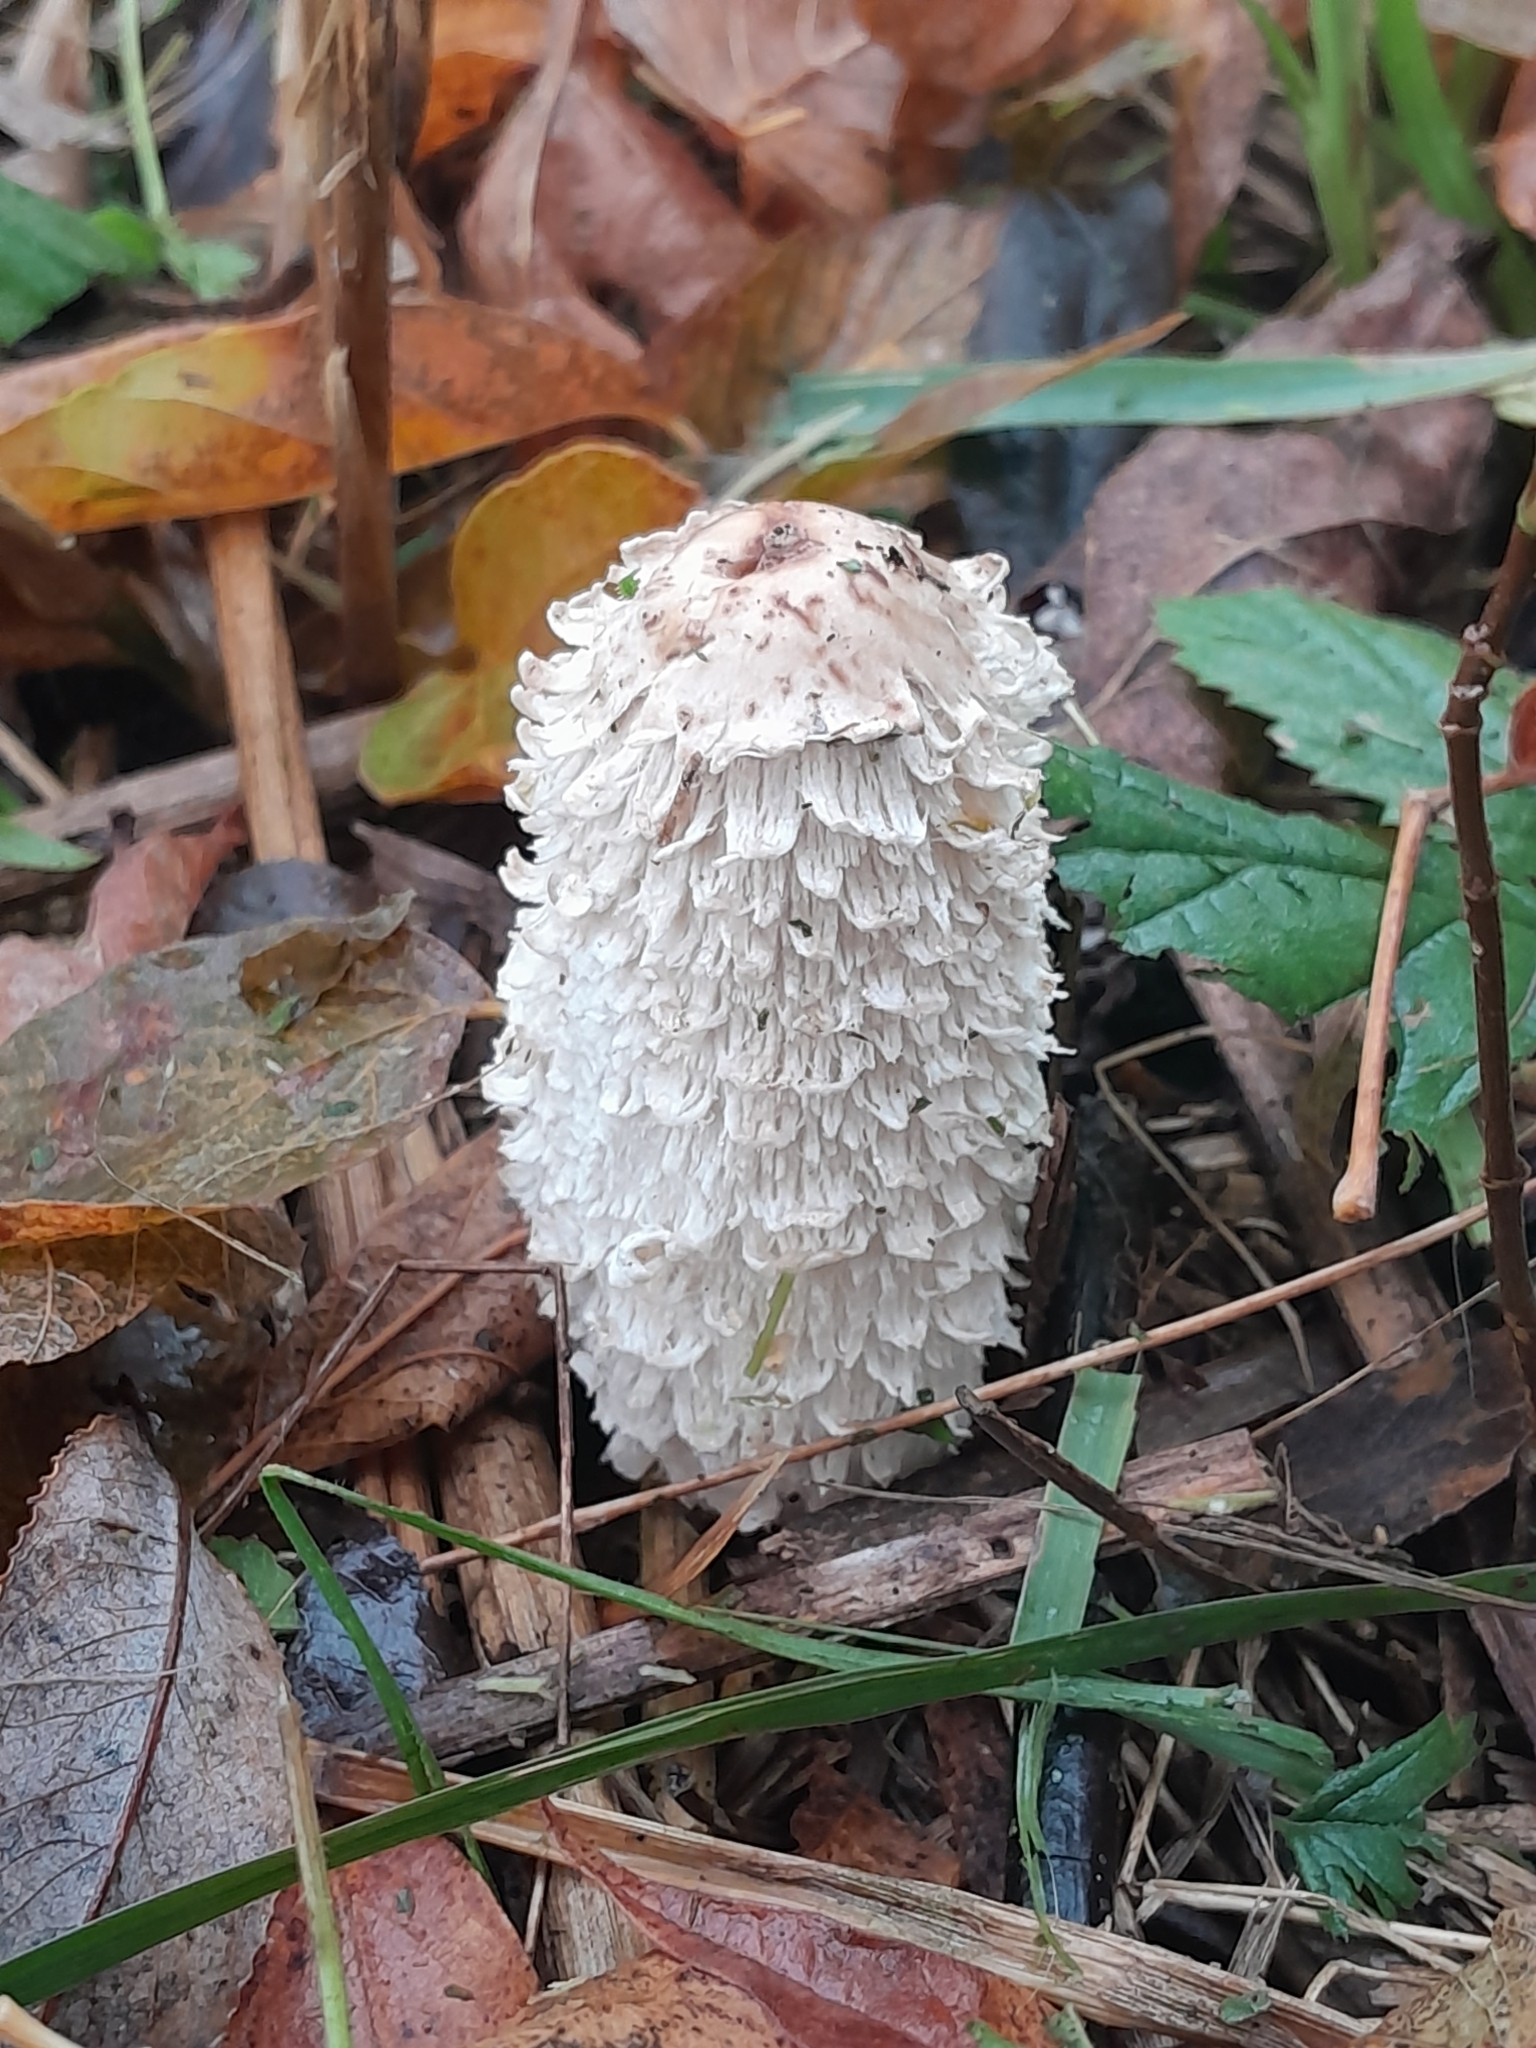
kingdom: Fungi
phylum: Basidiomycota
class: Agaricomycetes
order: Agaricales
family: Agaricaceae
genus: Coprinus
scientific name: Coprinus comatus
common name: Lawyer's wig
